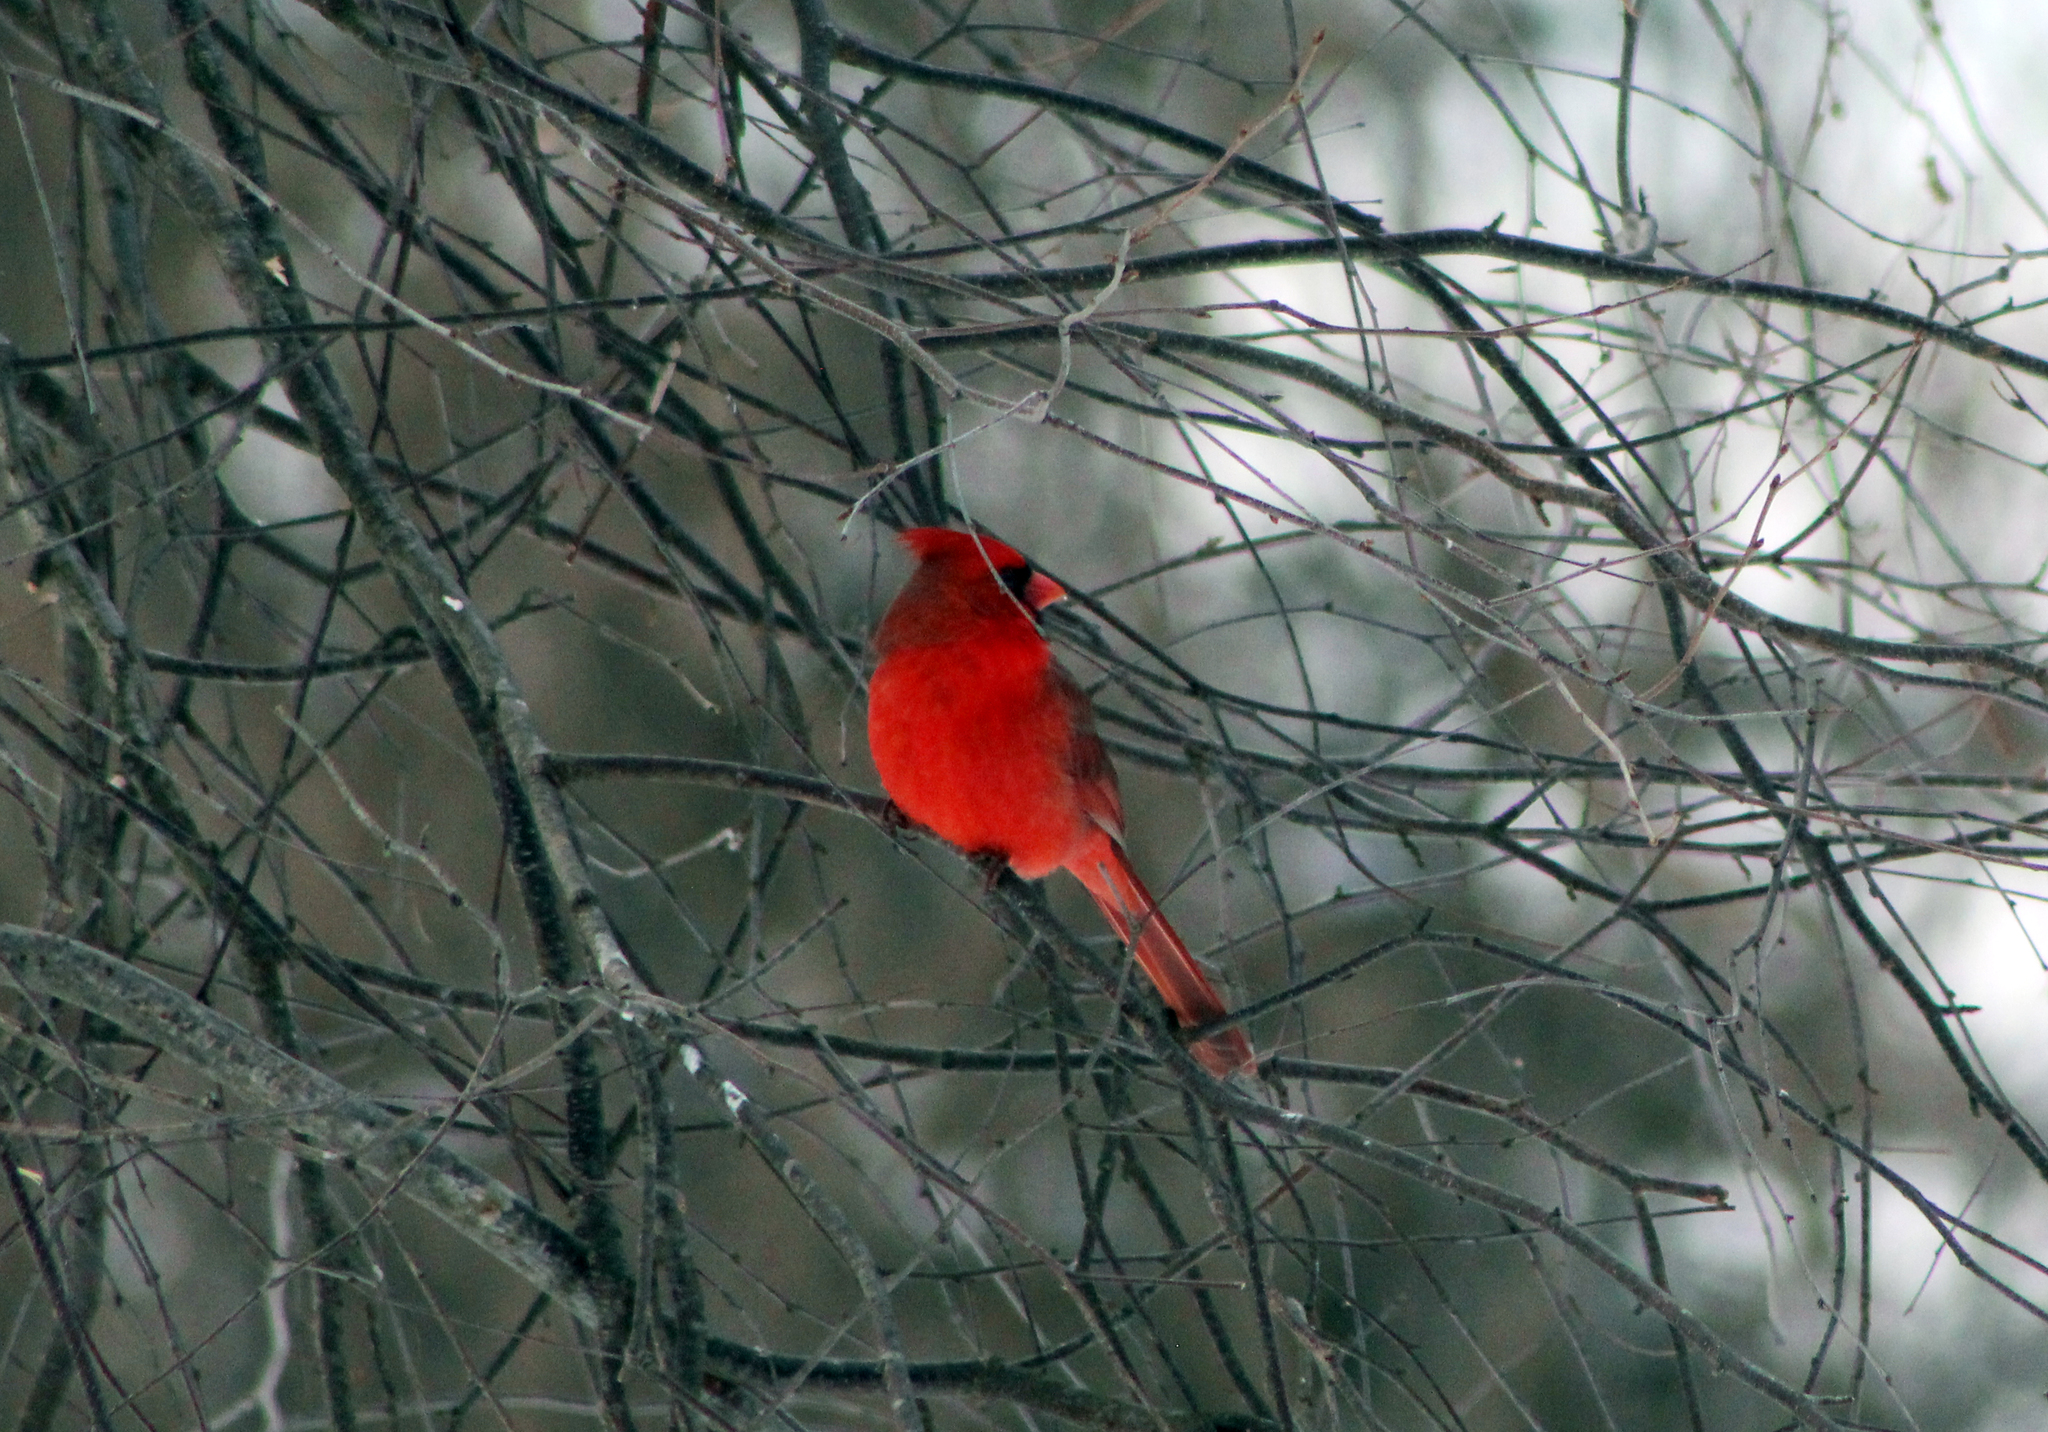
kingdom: Animalia
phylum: Chordata
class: Aves
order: Passeriformes
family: Cardinalidae
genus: Cardinalis
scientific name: Cardinalis cardinalis
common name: Northern cardinal
